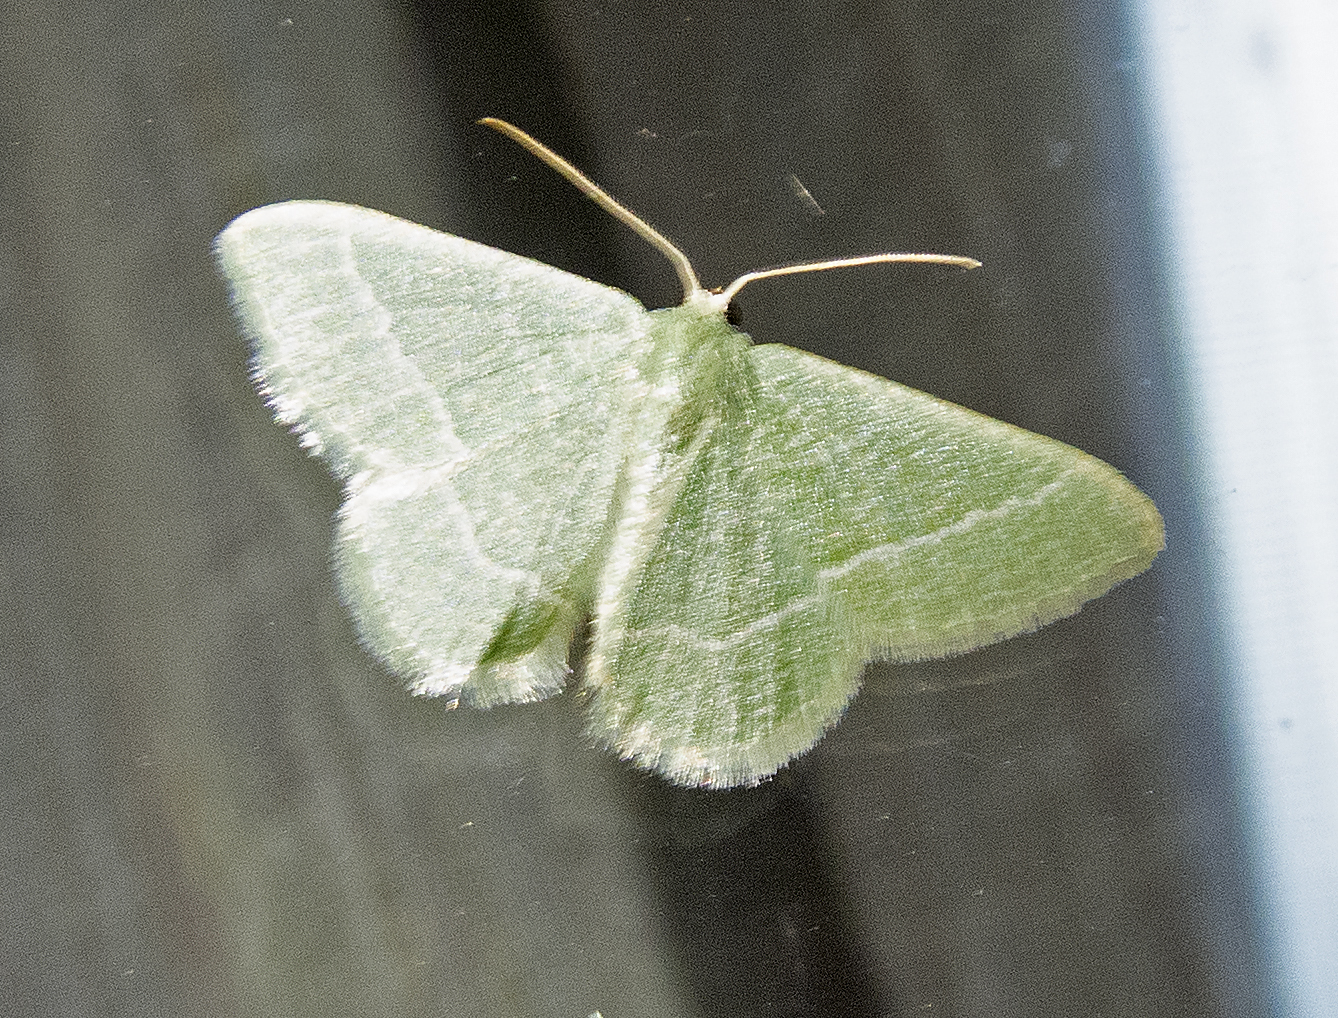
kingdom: Animalia
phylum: Arthropoda
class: Insecta
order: Lepidoptera
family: Geometridae
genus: Chlorissa
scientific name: Chlorissa etruscaria
